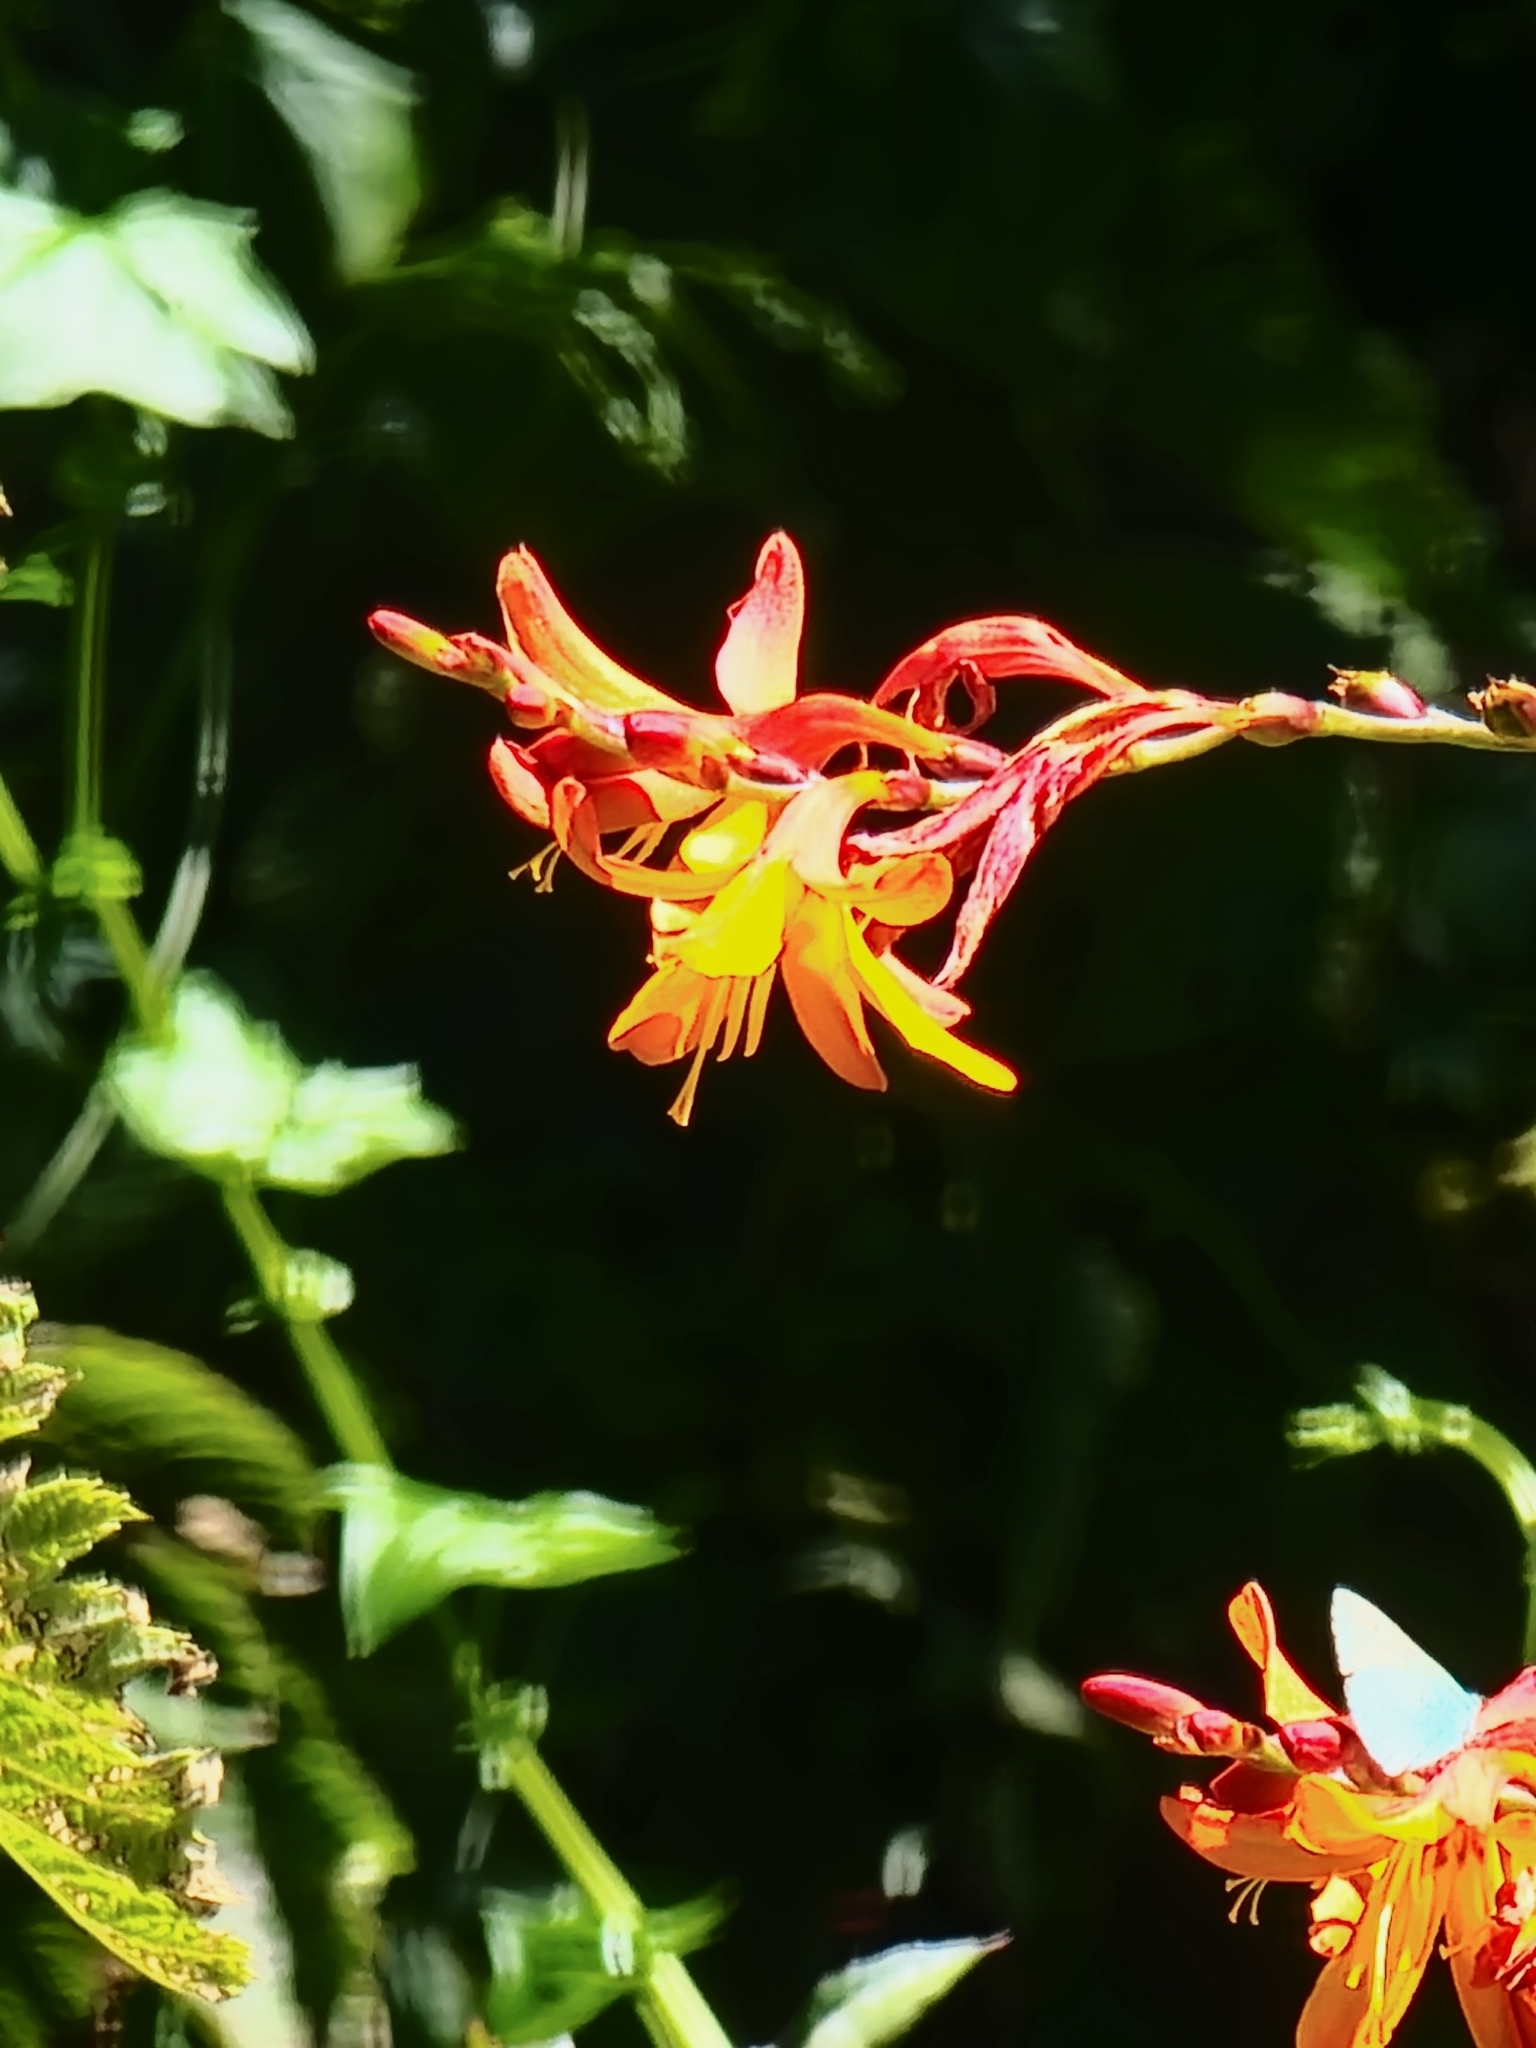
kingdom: Plantae
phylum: Tracheophyta
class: Liliopsida
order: Asparagales
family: Iridaceae
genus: Crocosmia
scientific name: Crocosmia crocosmiiflora
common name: Montbretia
